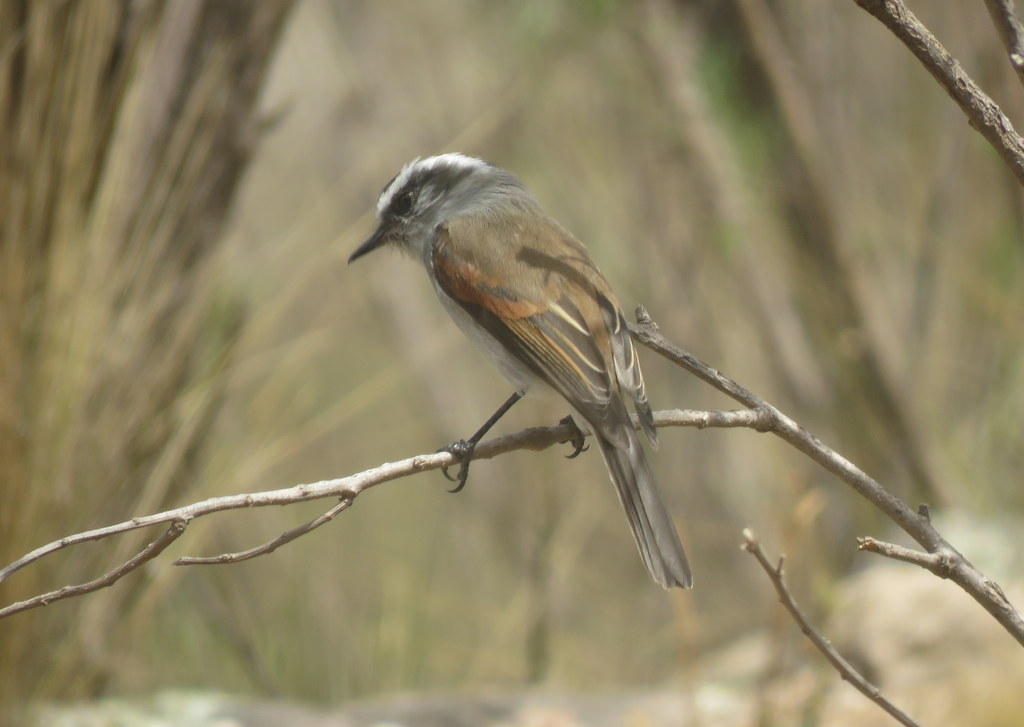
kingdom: Animalia
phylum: Chordata
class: Aves
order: Passeriformes
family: Tyrannidae
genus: Ochthoeca
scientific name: Ochthoeca leucophrys
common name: White-browed chat-tyrant
